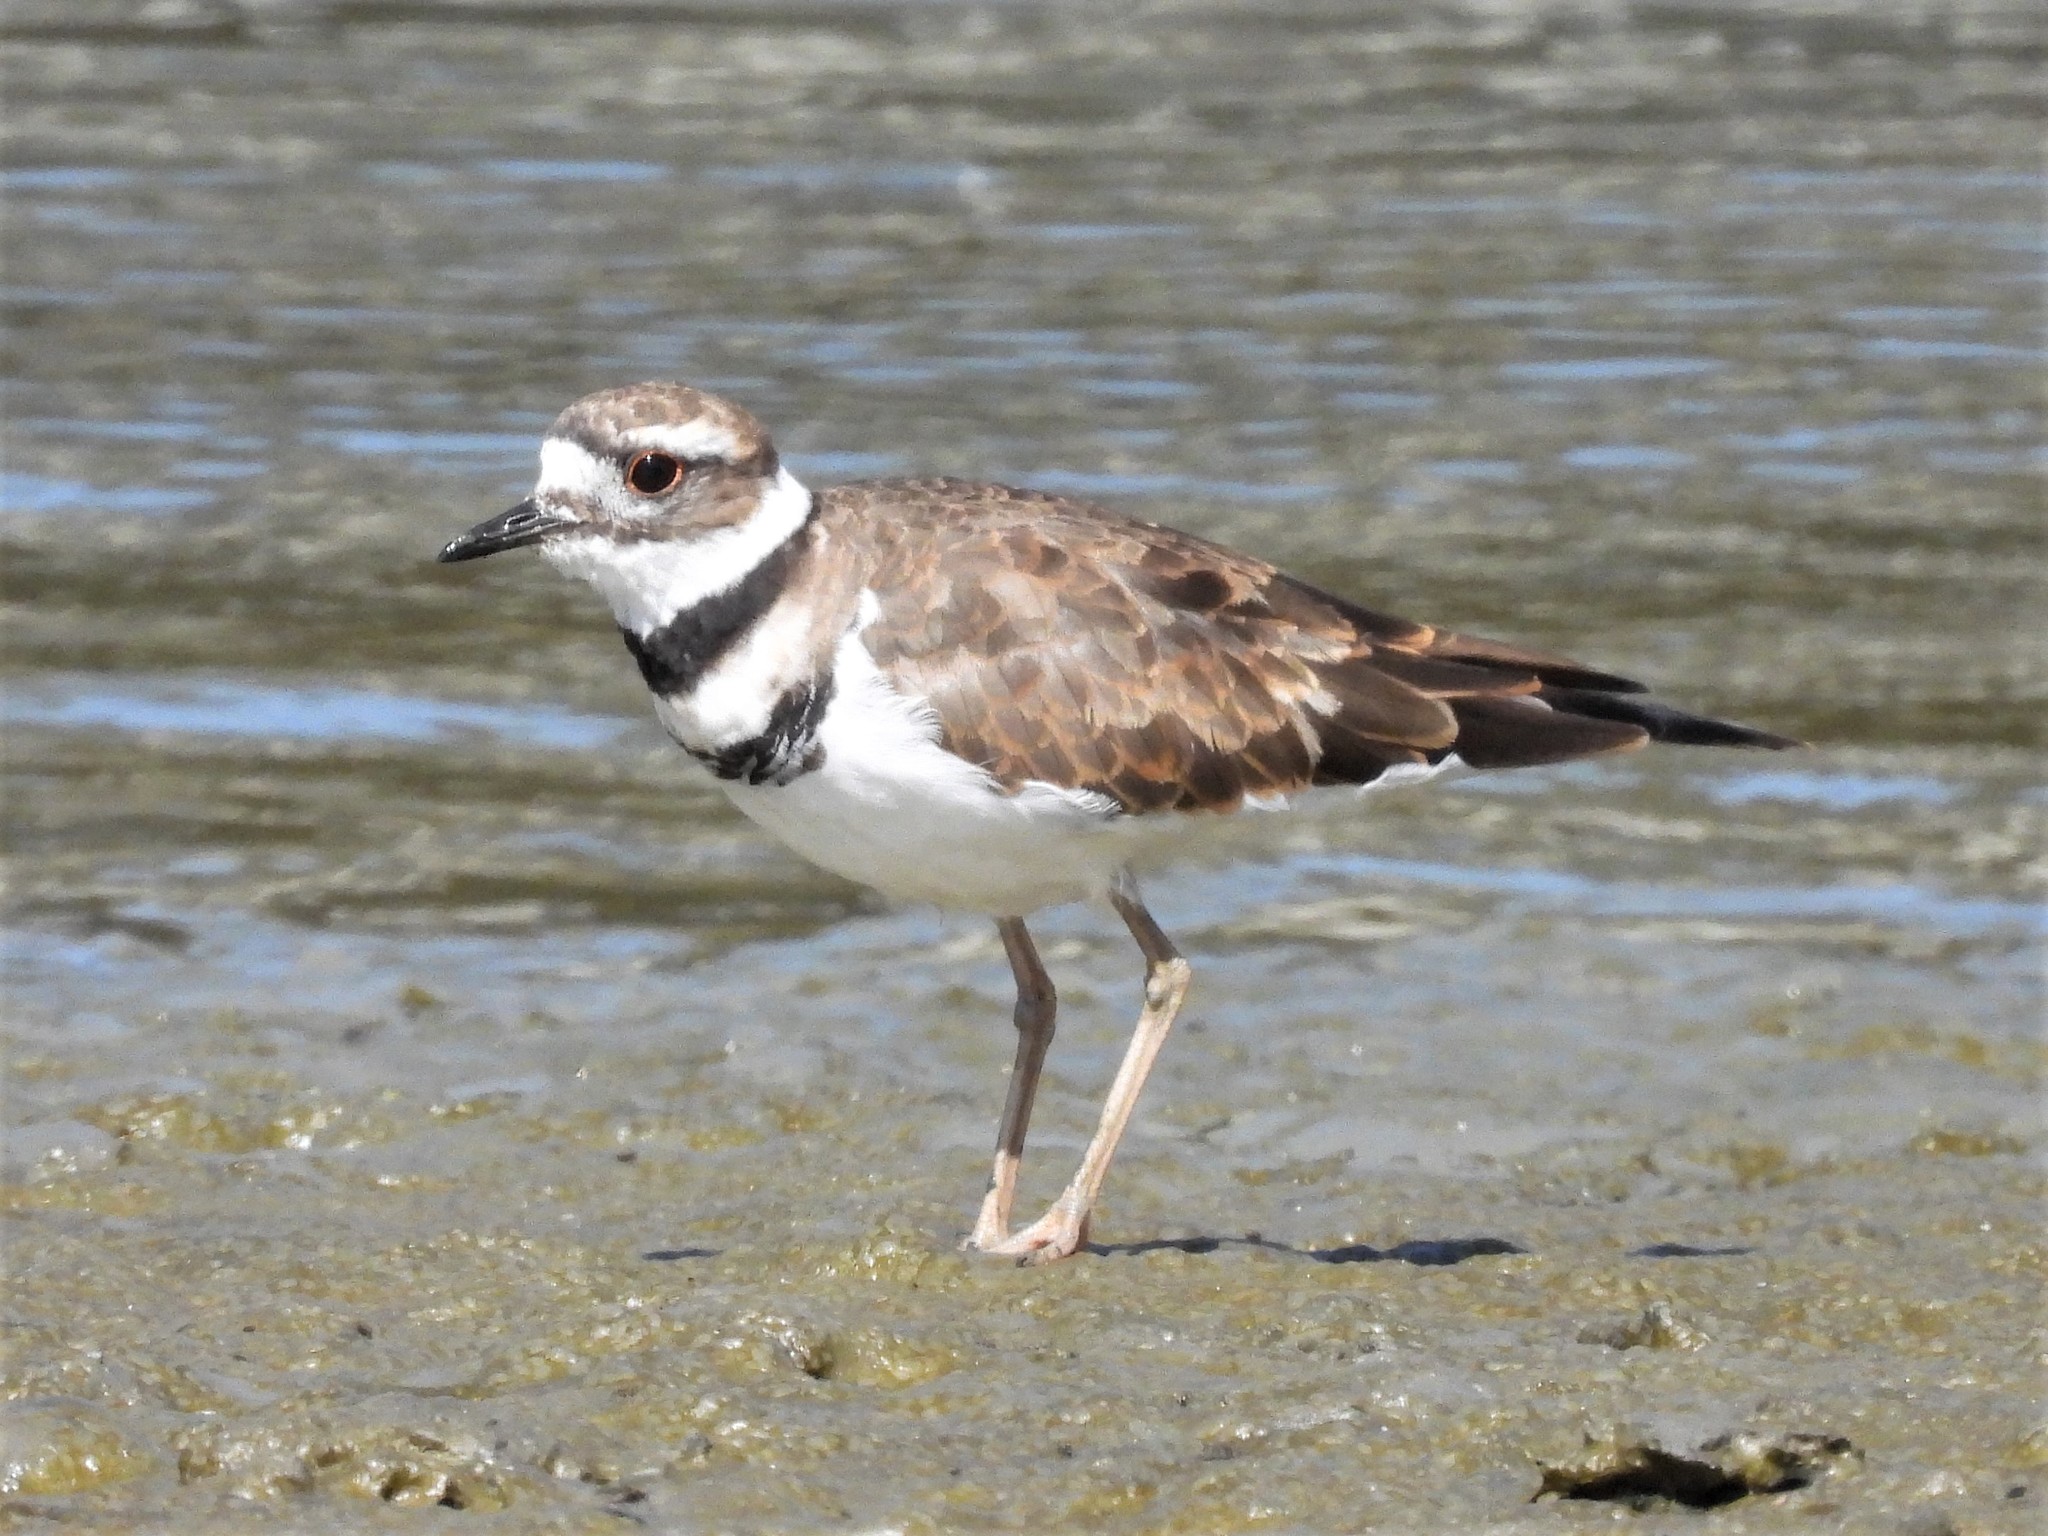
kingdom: Animalia
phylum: Chordata
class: Aves
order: Charadriiformes
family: Charadriidae
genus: Charadrius
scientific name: Charadrius vociferus
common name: Killdeer
